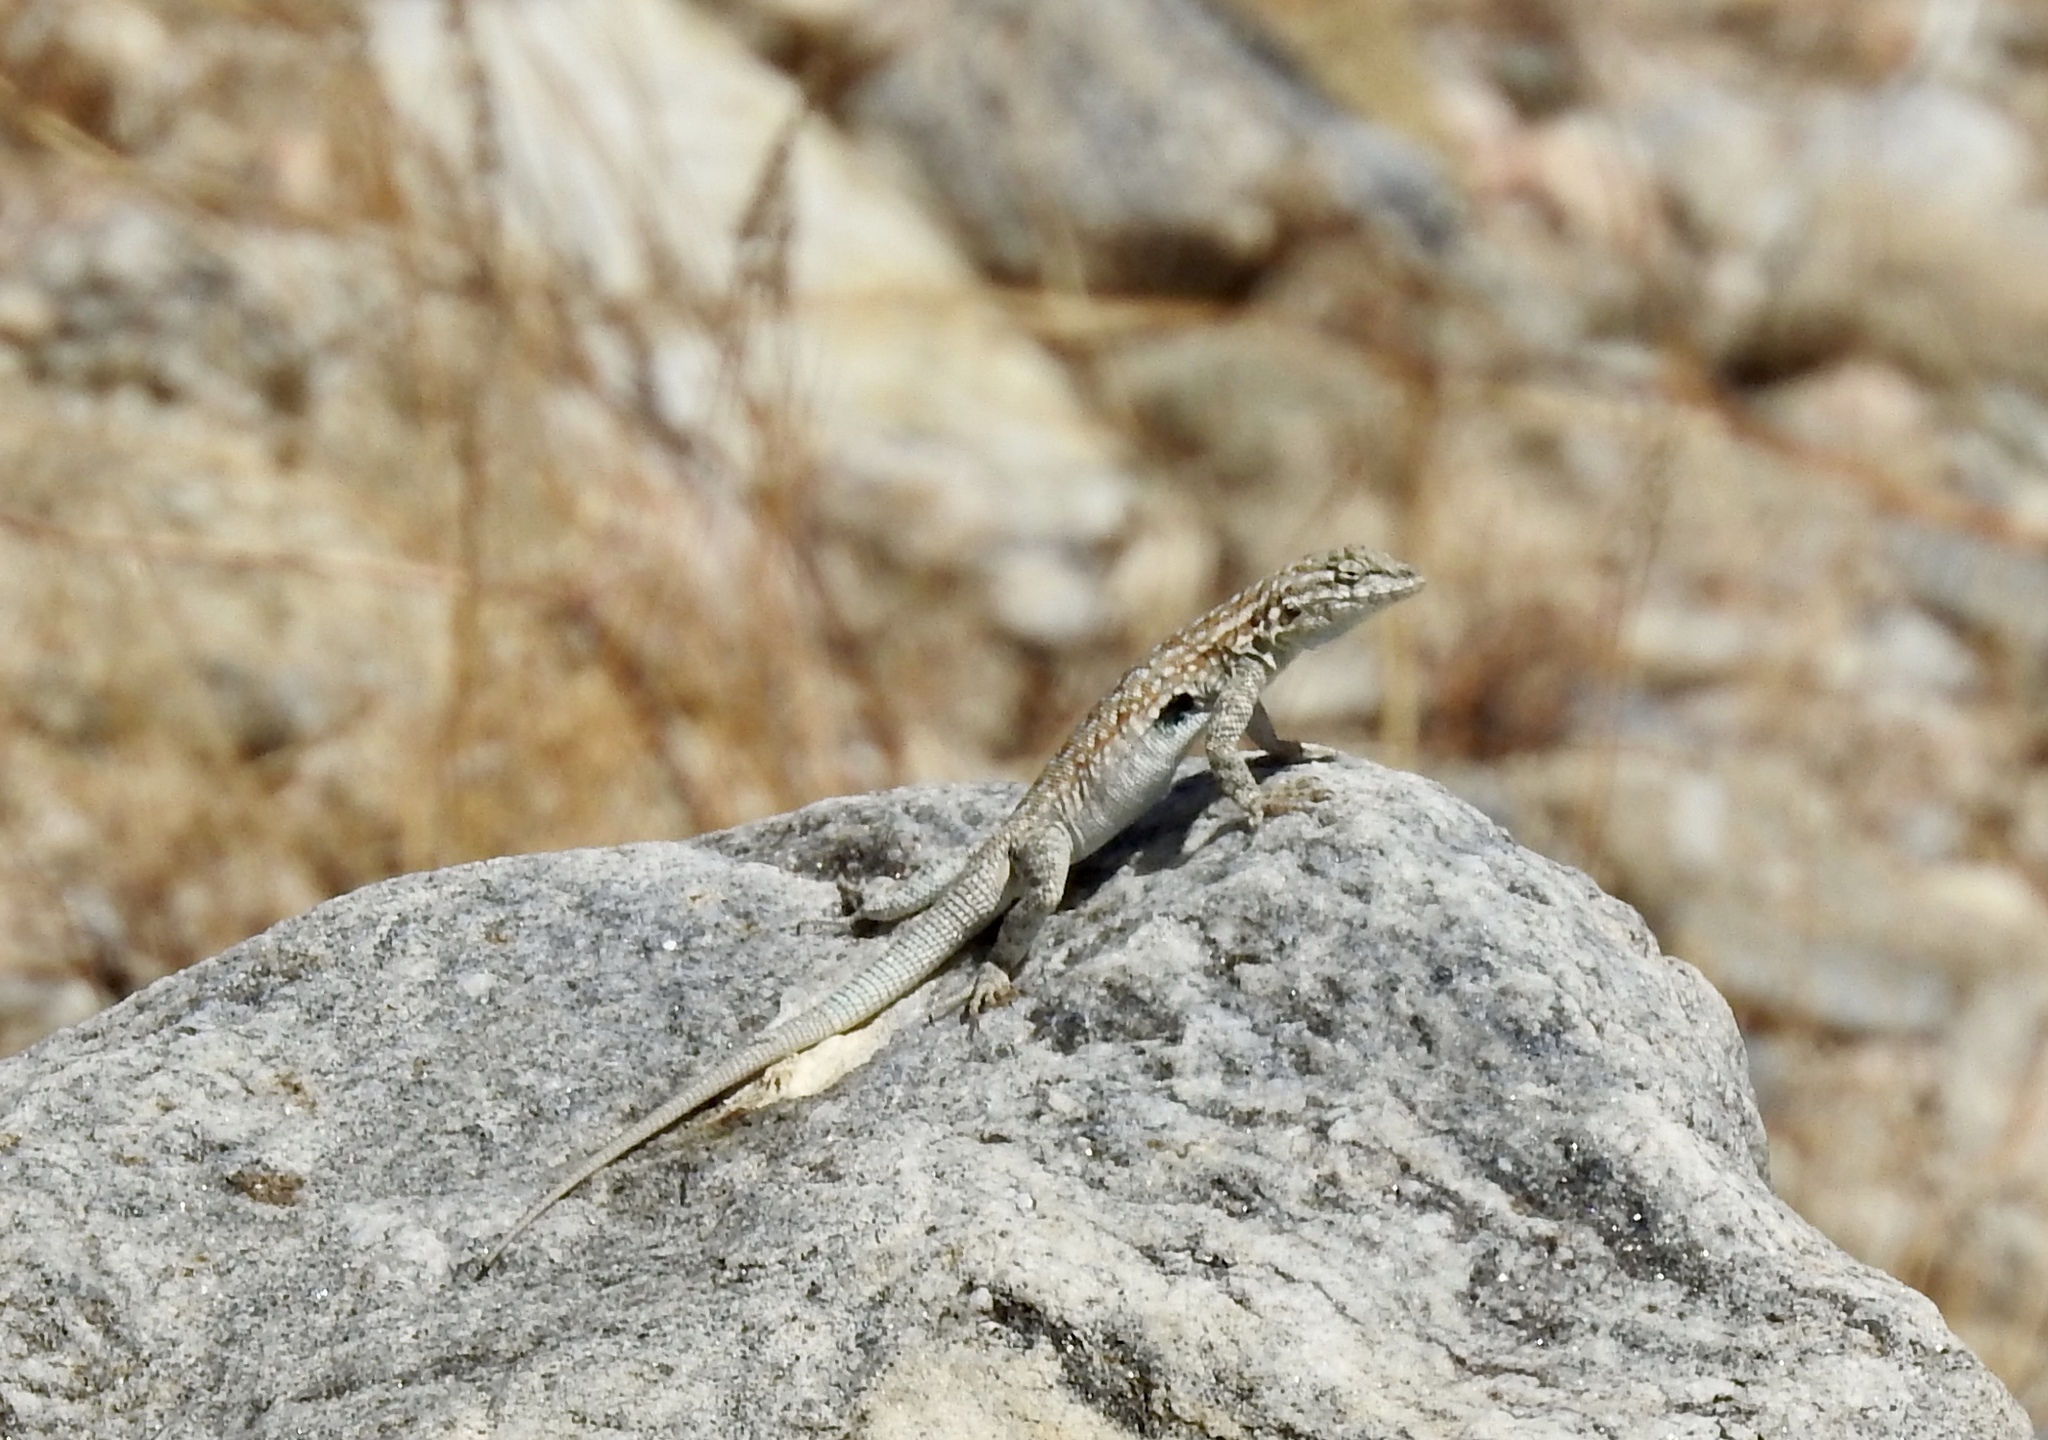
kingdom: Animalia
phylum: Chordata
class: Squamata
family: Phrynosomatidae
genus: Uta
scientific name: Uta stansburiana
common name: Side-blotched lizard
